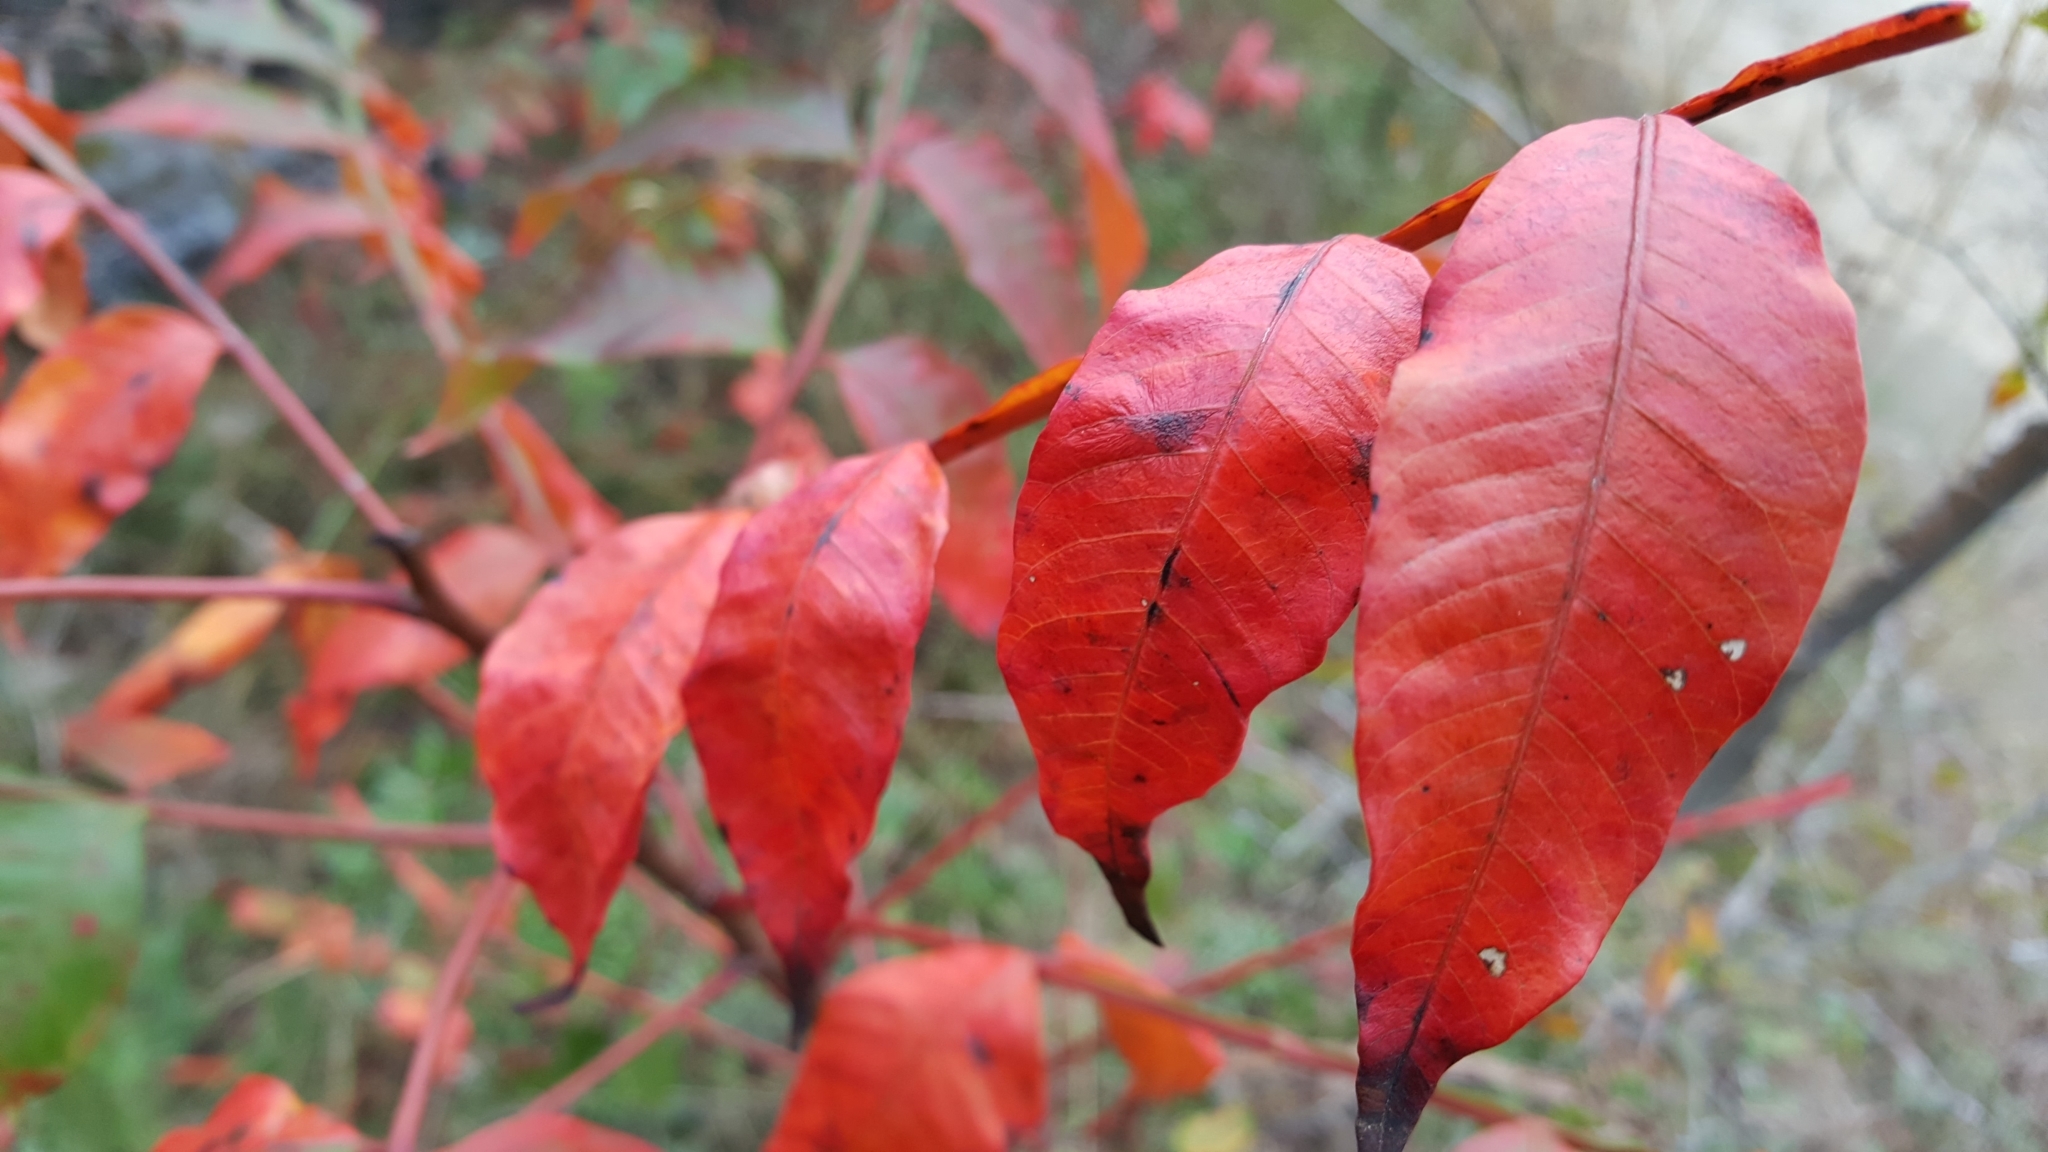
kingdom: Plantae
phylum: Tracheophyta
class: Magnoliopsida
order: Sapindales
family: Anacardiaceae
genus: Rhus
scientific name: Rhus copallina
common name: Shining sumac
